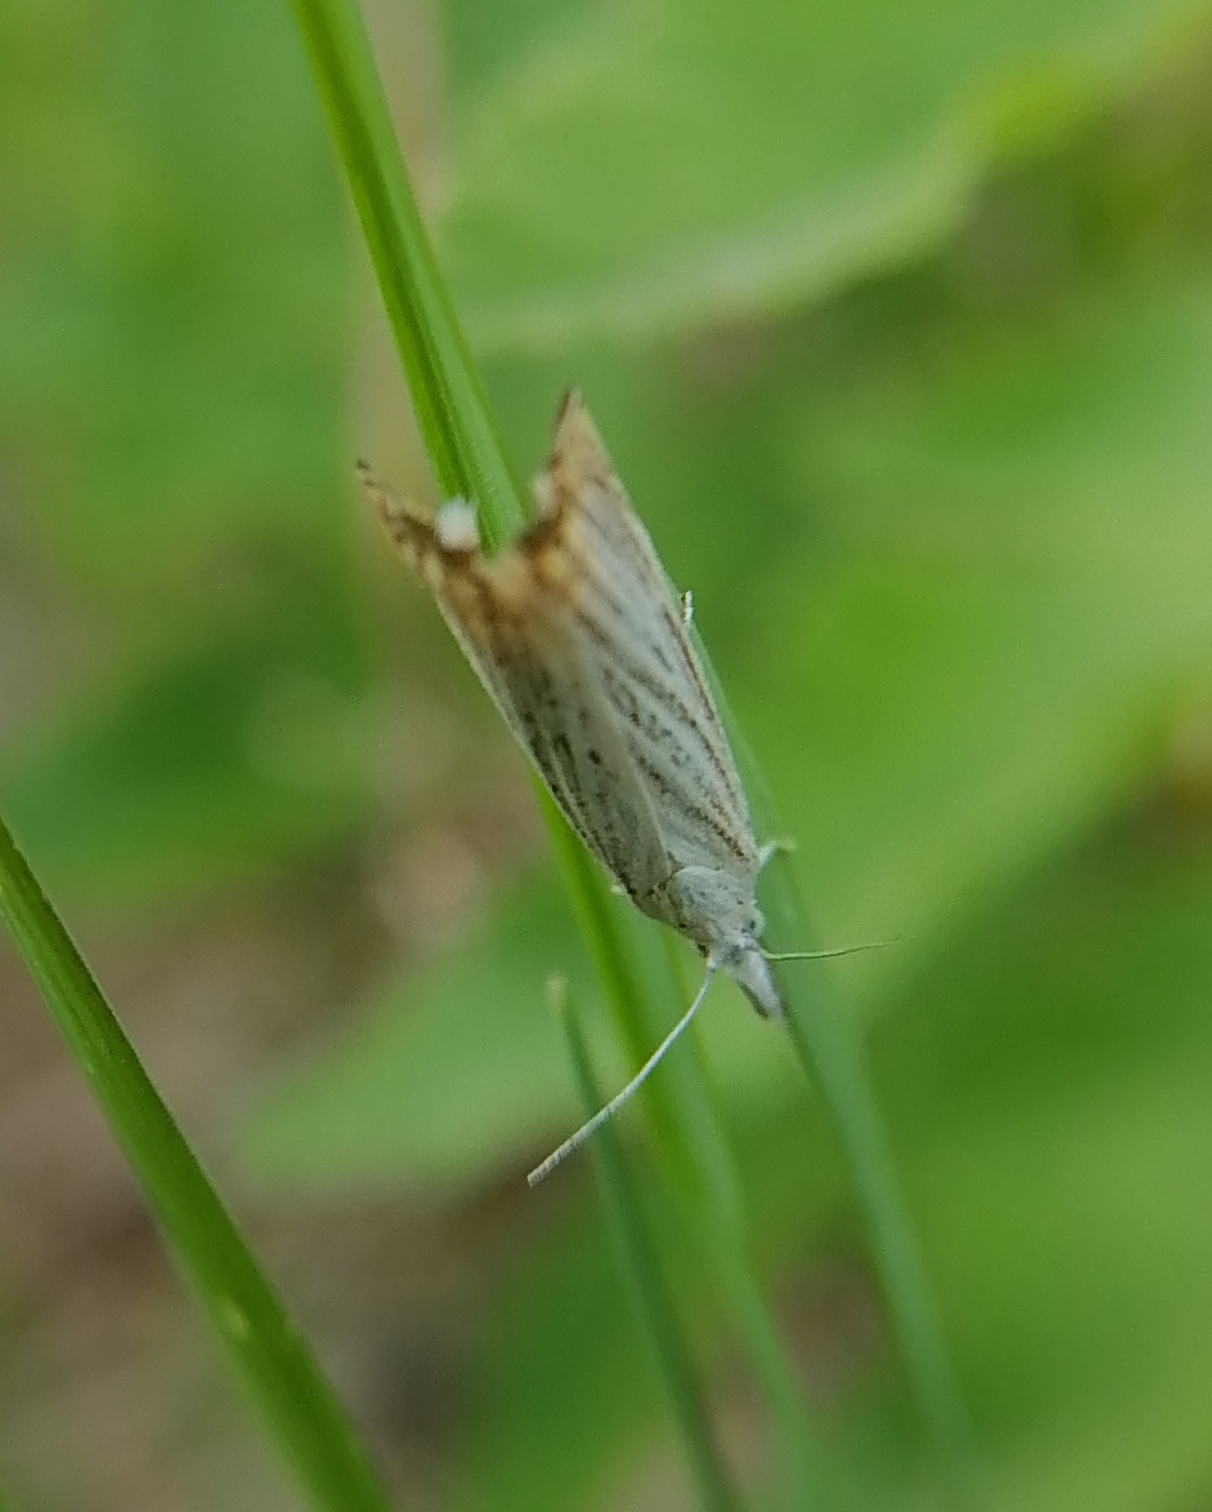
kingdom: Animalia
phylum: Arthropoda
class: Insecta
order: Lepidoptera
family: Crambidae
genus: Chrysoteuchia
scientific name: Chrysoteuchia culmella
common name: Garden grass-veneer
